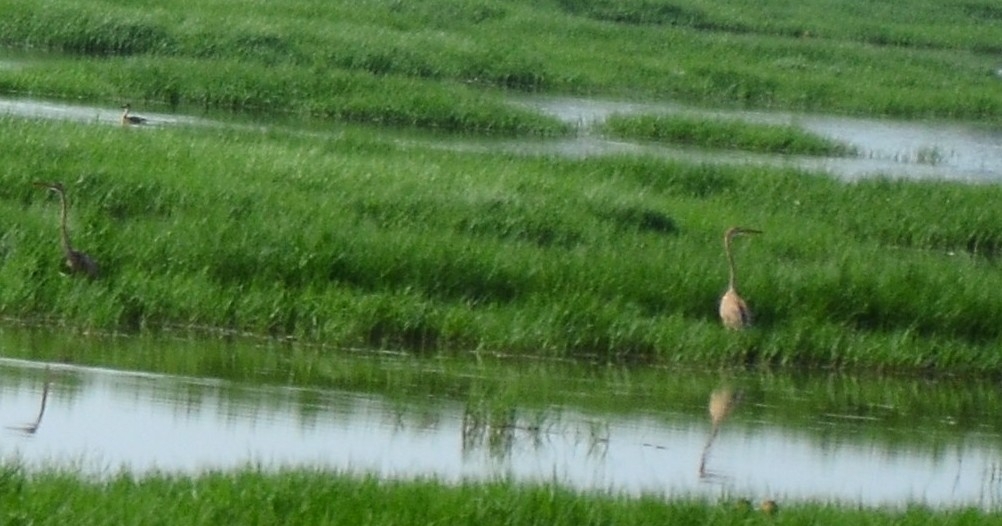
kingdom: Animalia
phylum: Chordata
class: Aves
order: Pelecaniformes
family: Ardeidae
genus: Ardea
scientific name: Ardea purpurea
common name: Purple heron
